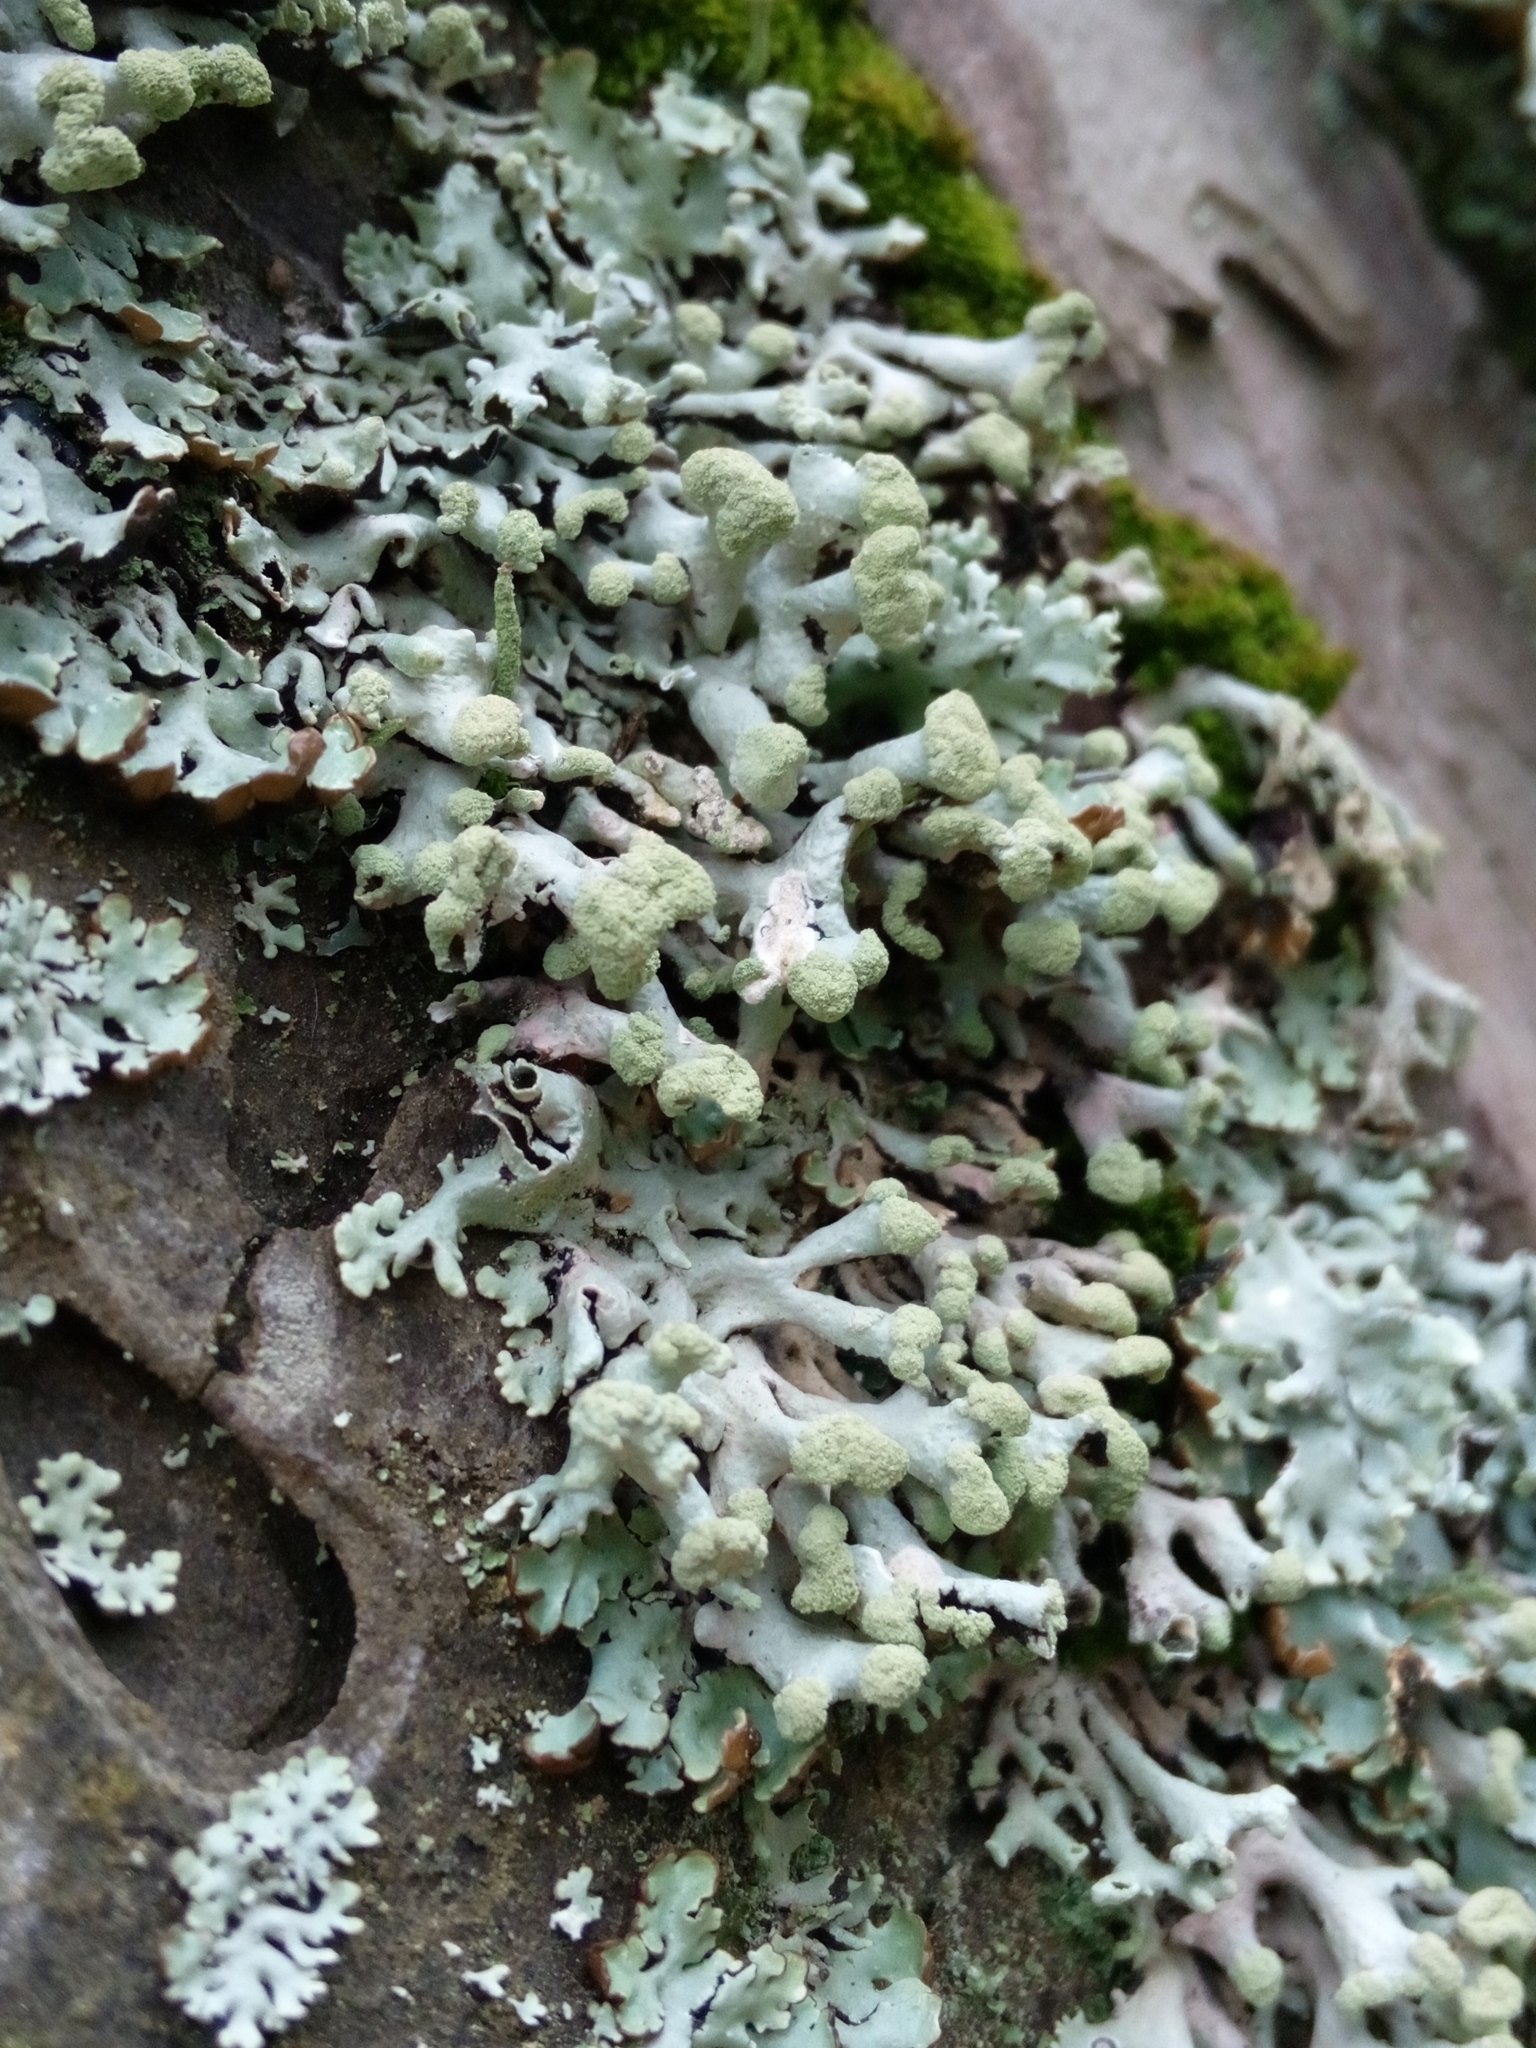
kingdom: Fungi
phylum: Ascomycota
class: Lecanoromycetes
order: Lecanorales
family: Parmeliaceae
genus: Hypogymnia
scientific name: Hypogymnia tubulosa
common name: Powder-headed tube lichen
